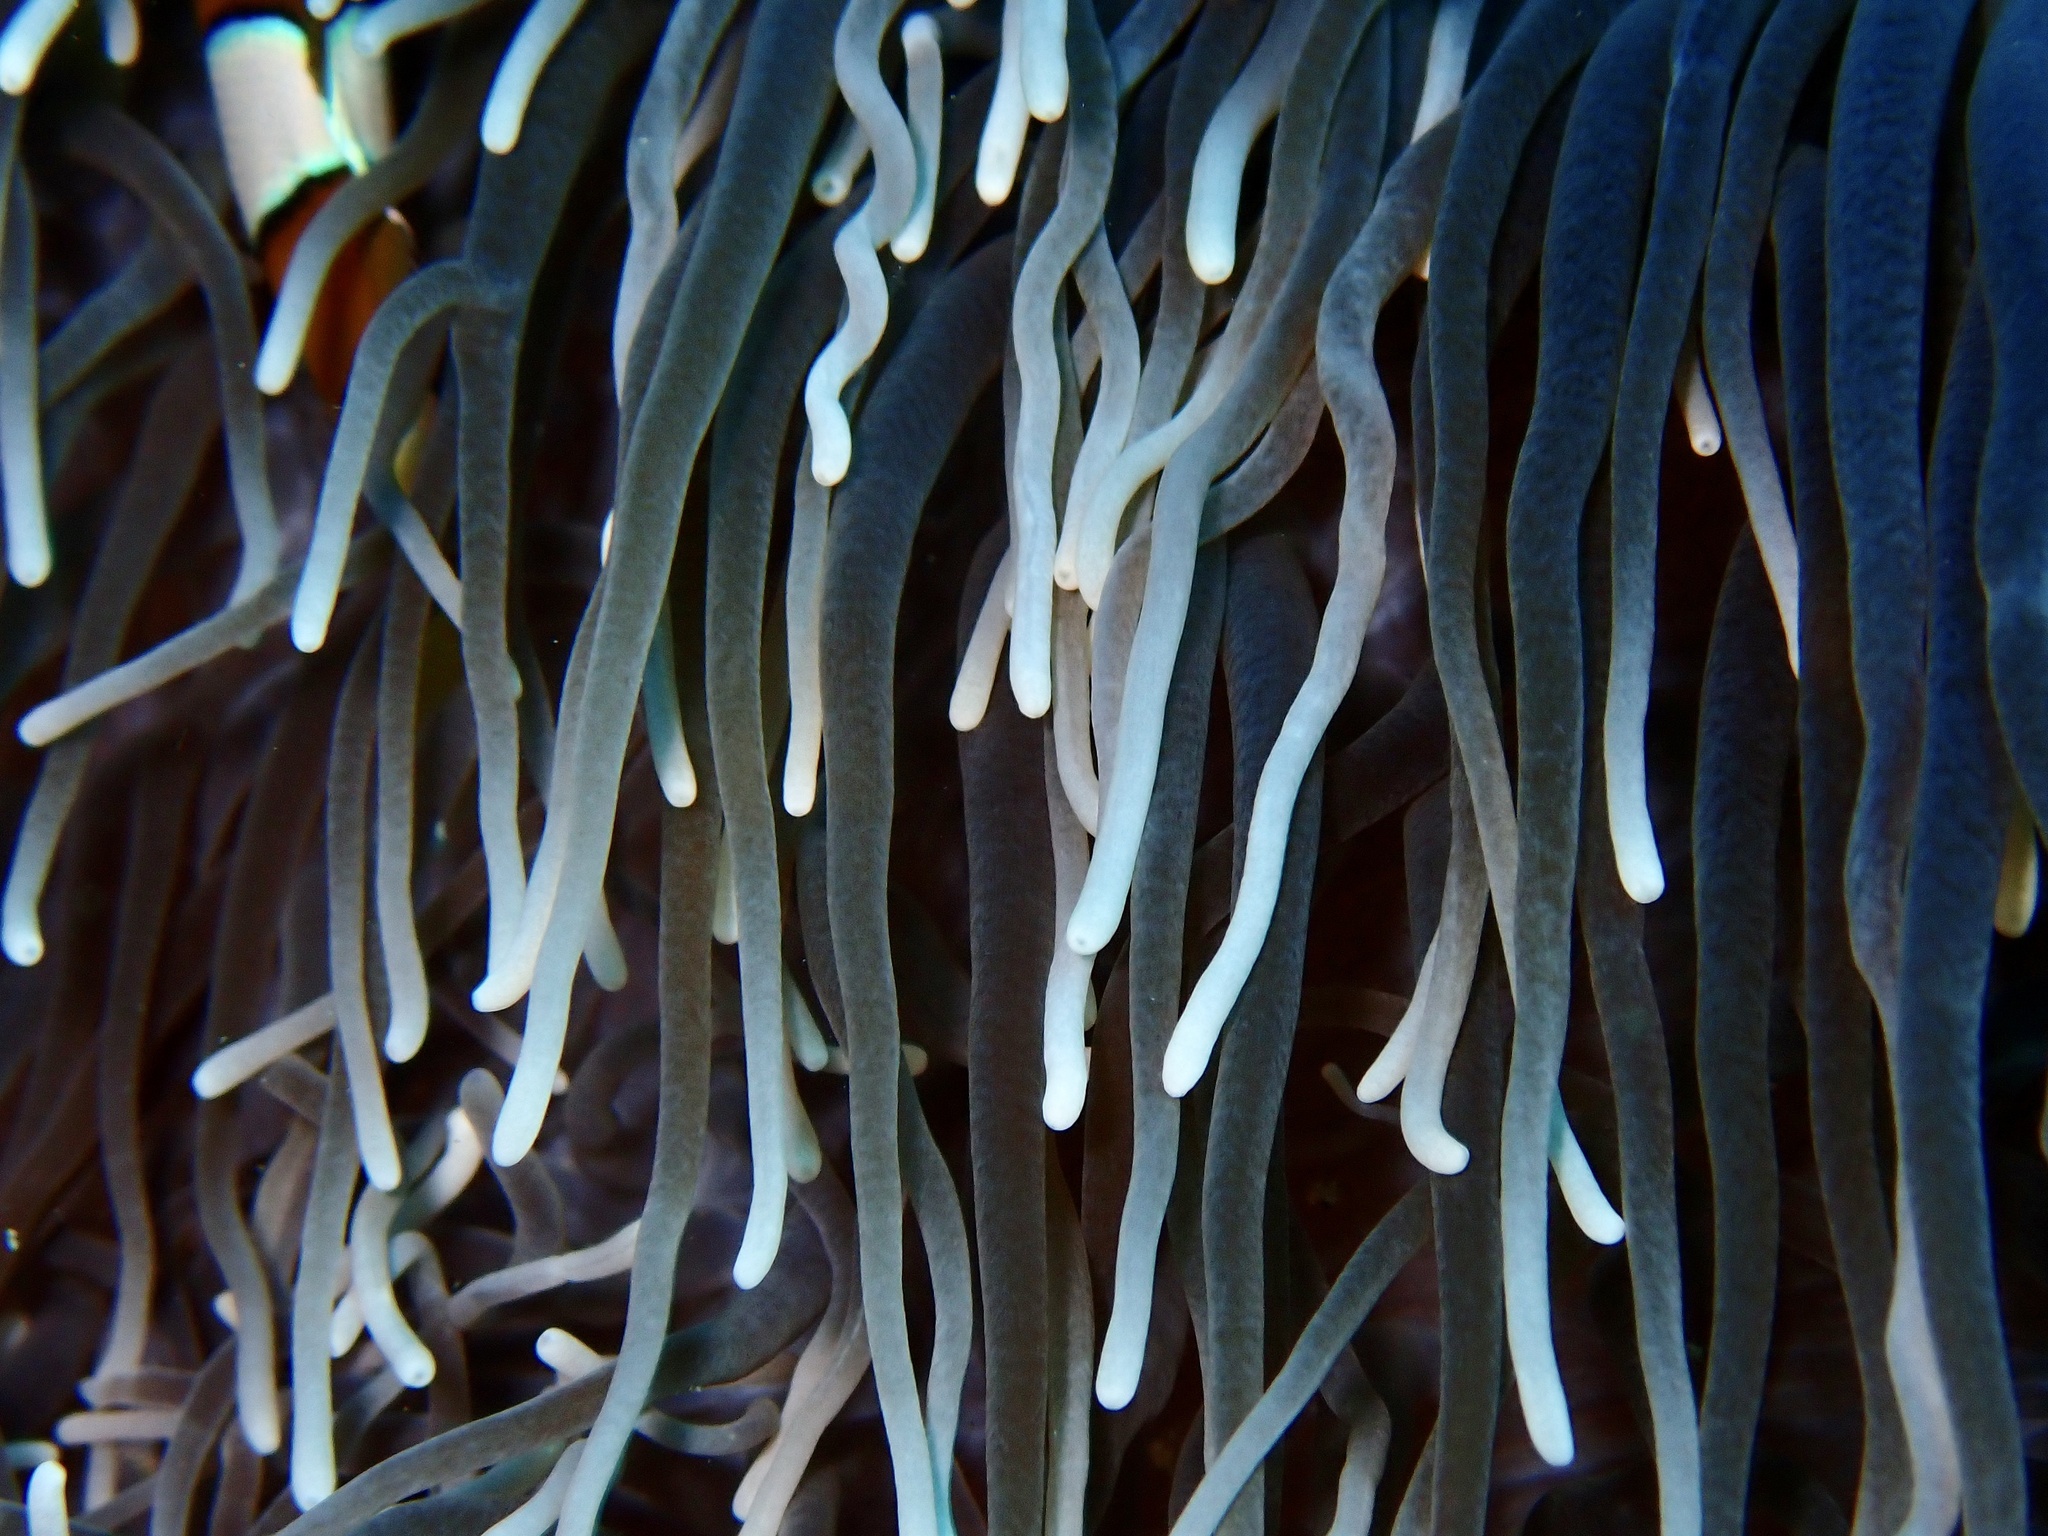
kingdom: Animalia
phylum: Cnidaria
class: Anthozoa
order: Actiniaria
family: Actiniidae
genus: Entacmaea
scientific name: Entacmaea quadricolor
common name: Bulb tentacle sea anemone
